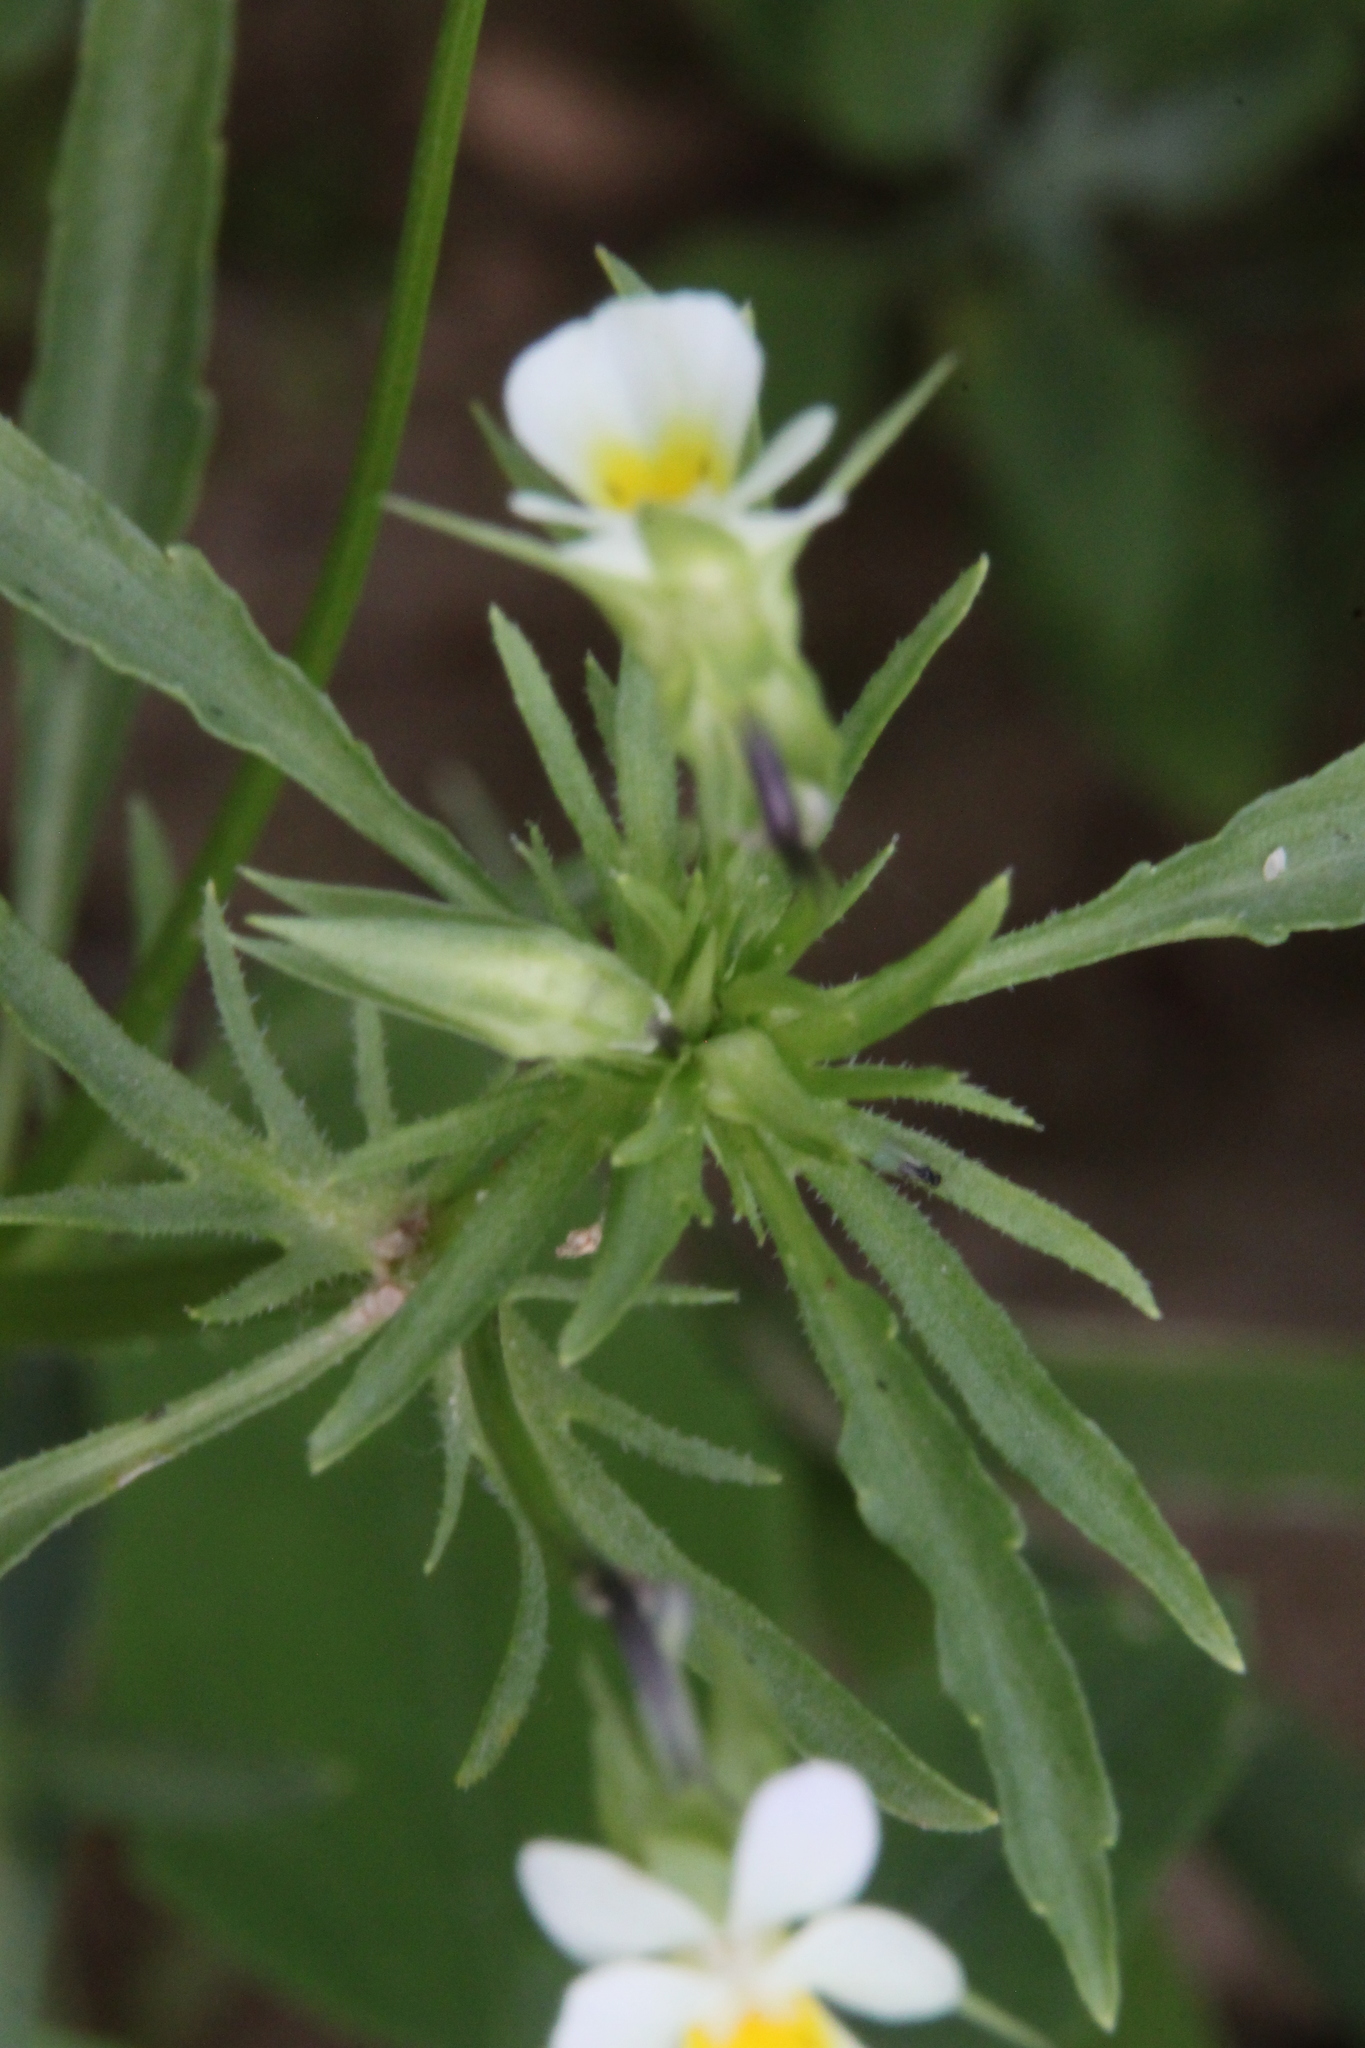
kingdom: Plantae
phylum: Tracheophyta
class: Magnoliopsida
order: Malpighiales
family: Violaceae
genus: Viola
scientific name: Viola arvensis
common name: Field pansy
